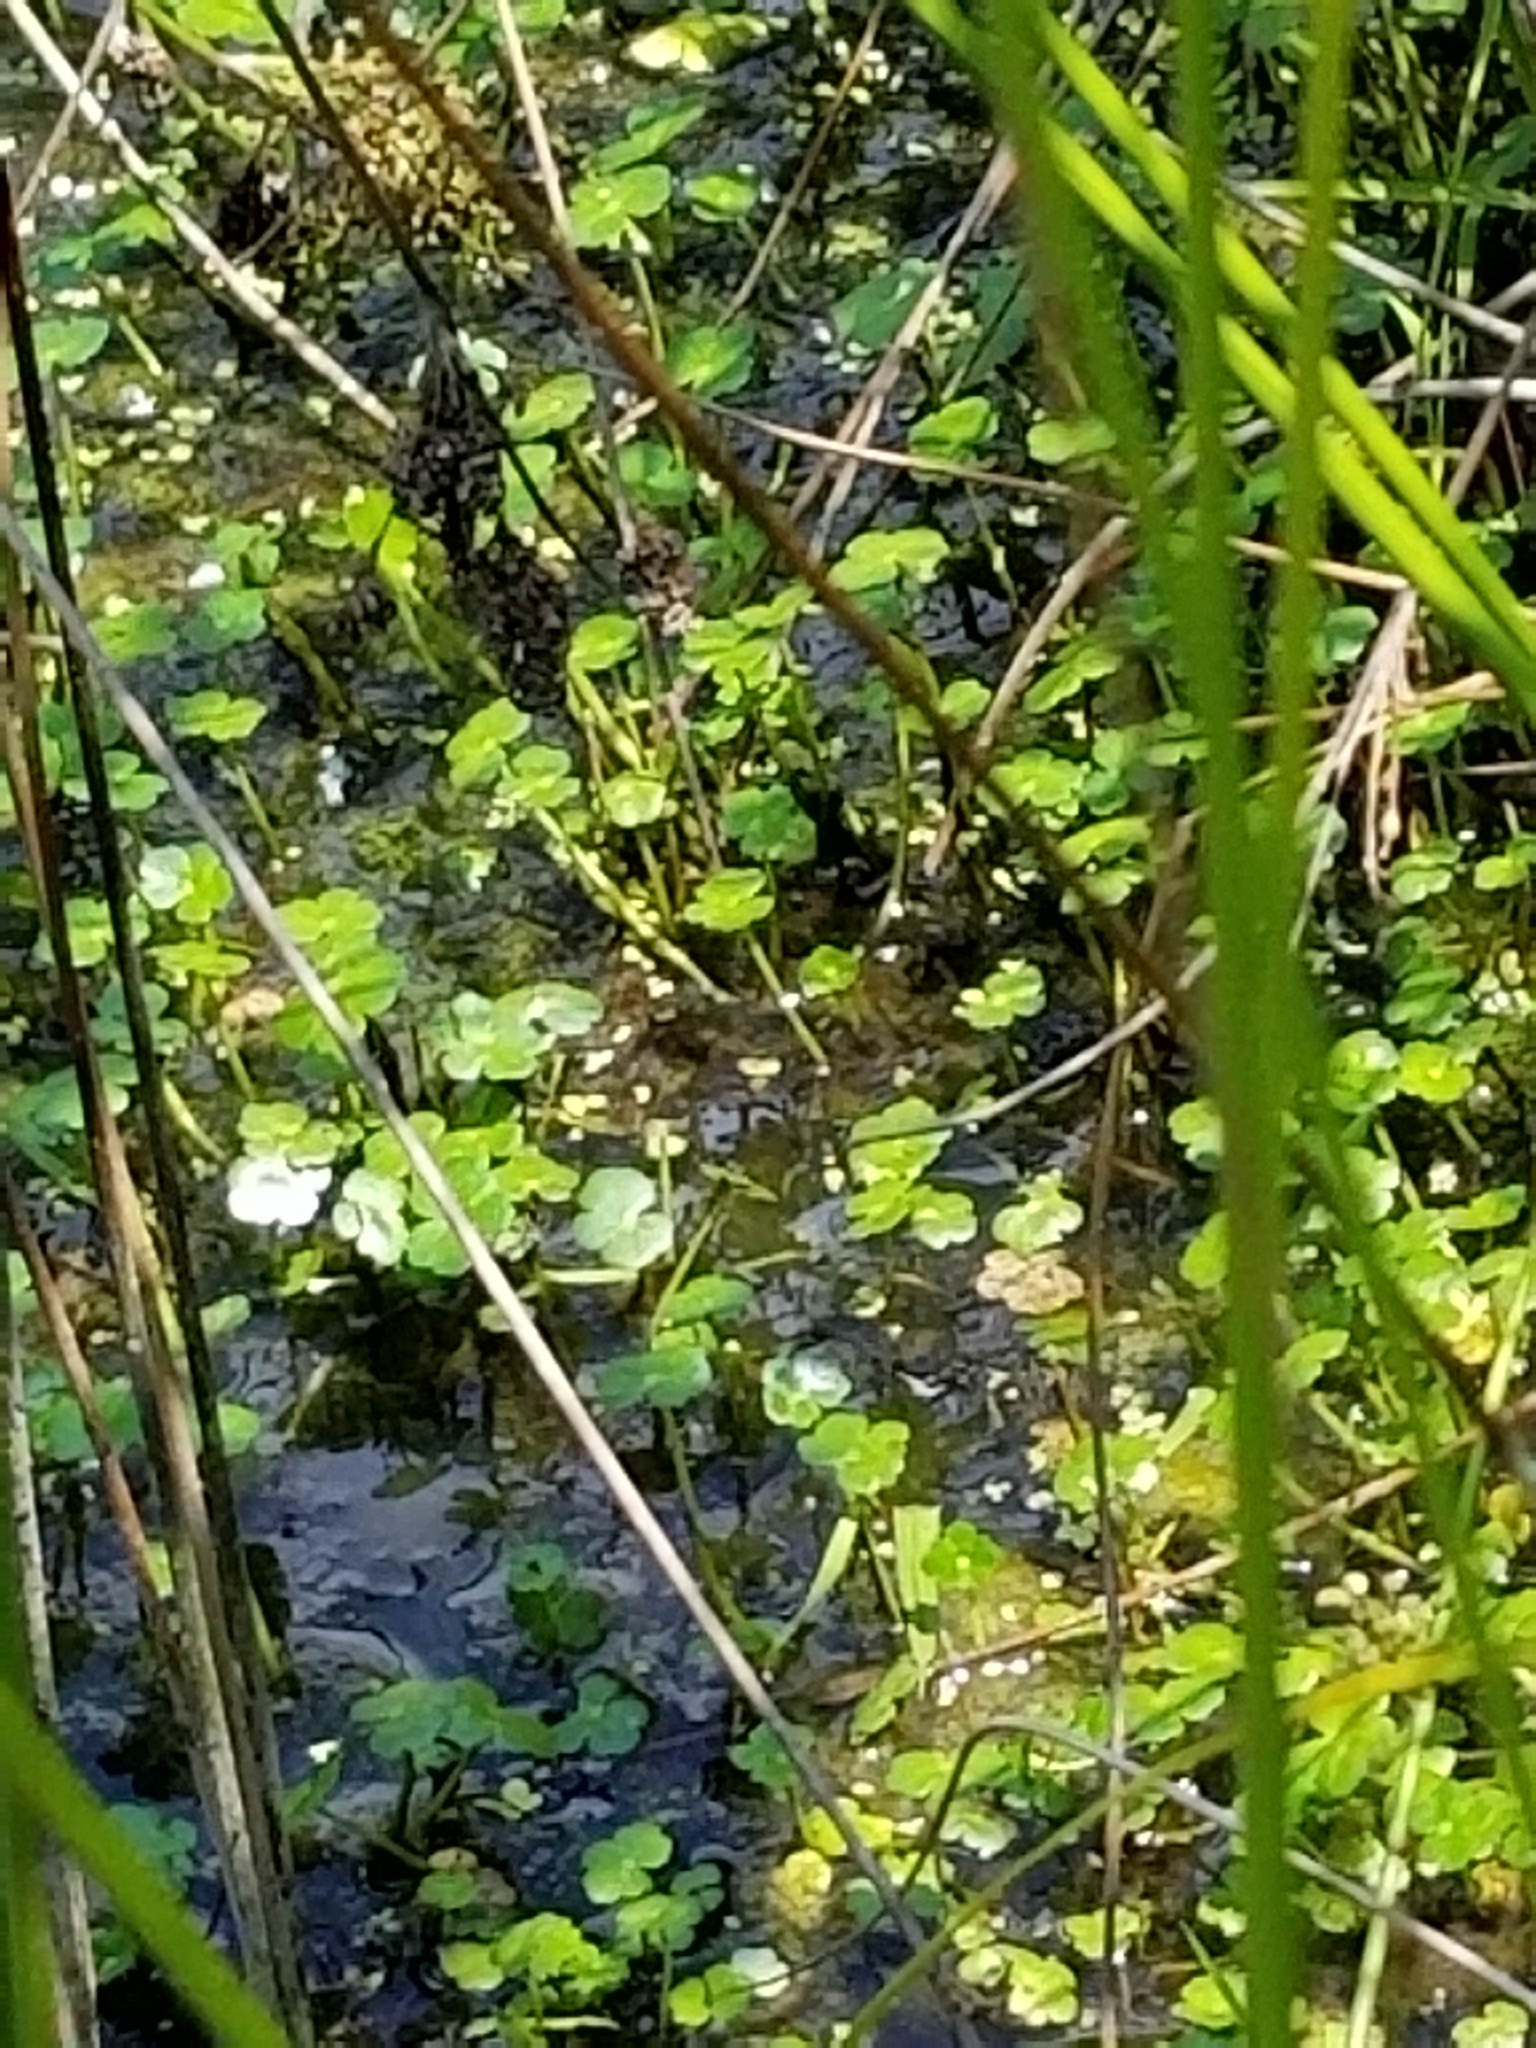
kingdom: Plantae
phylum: Tracheophyta
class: Magnoliopsida
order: Apiales
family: Araliaceae
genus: Hydrocotyle
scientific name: Hydrocotyle ranunculoides
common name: Floating pennywort
